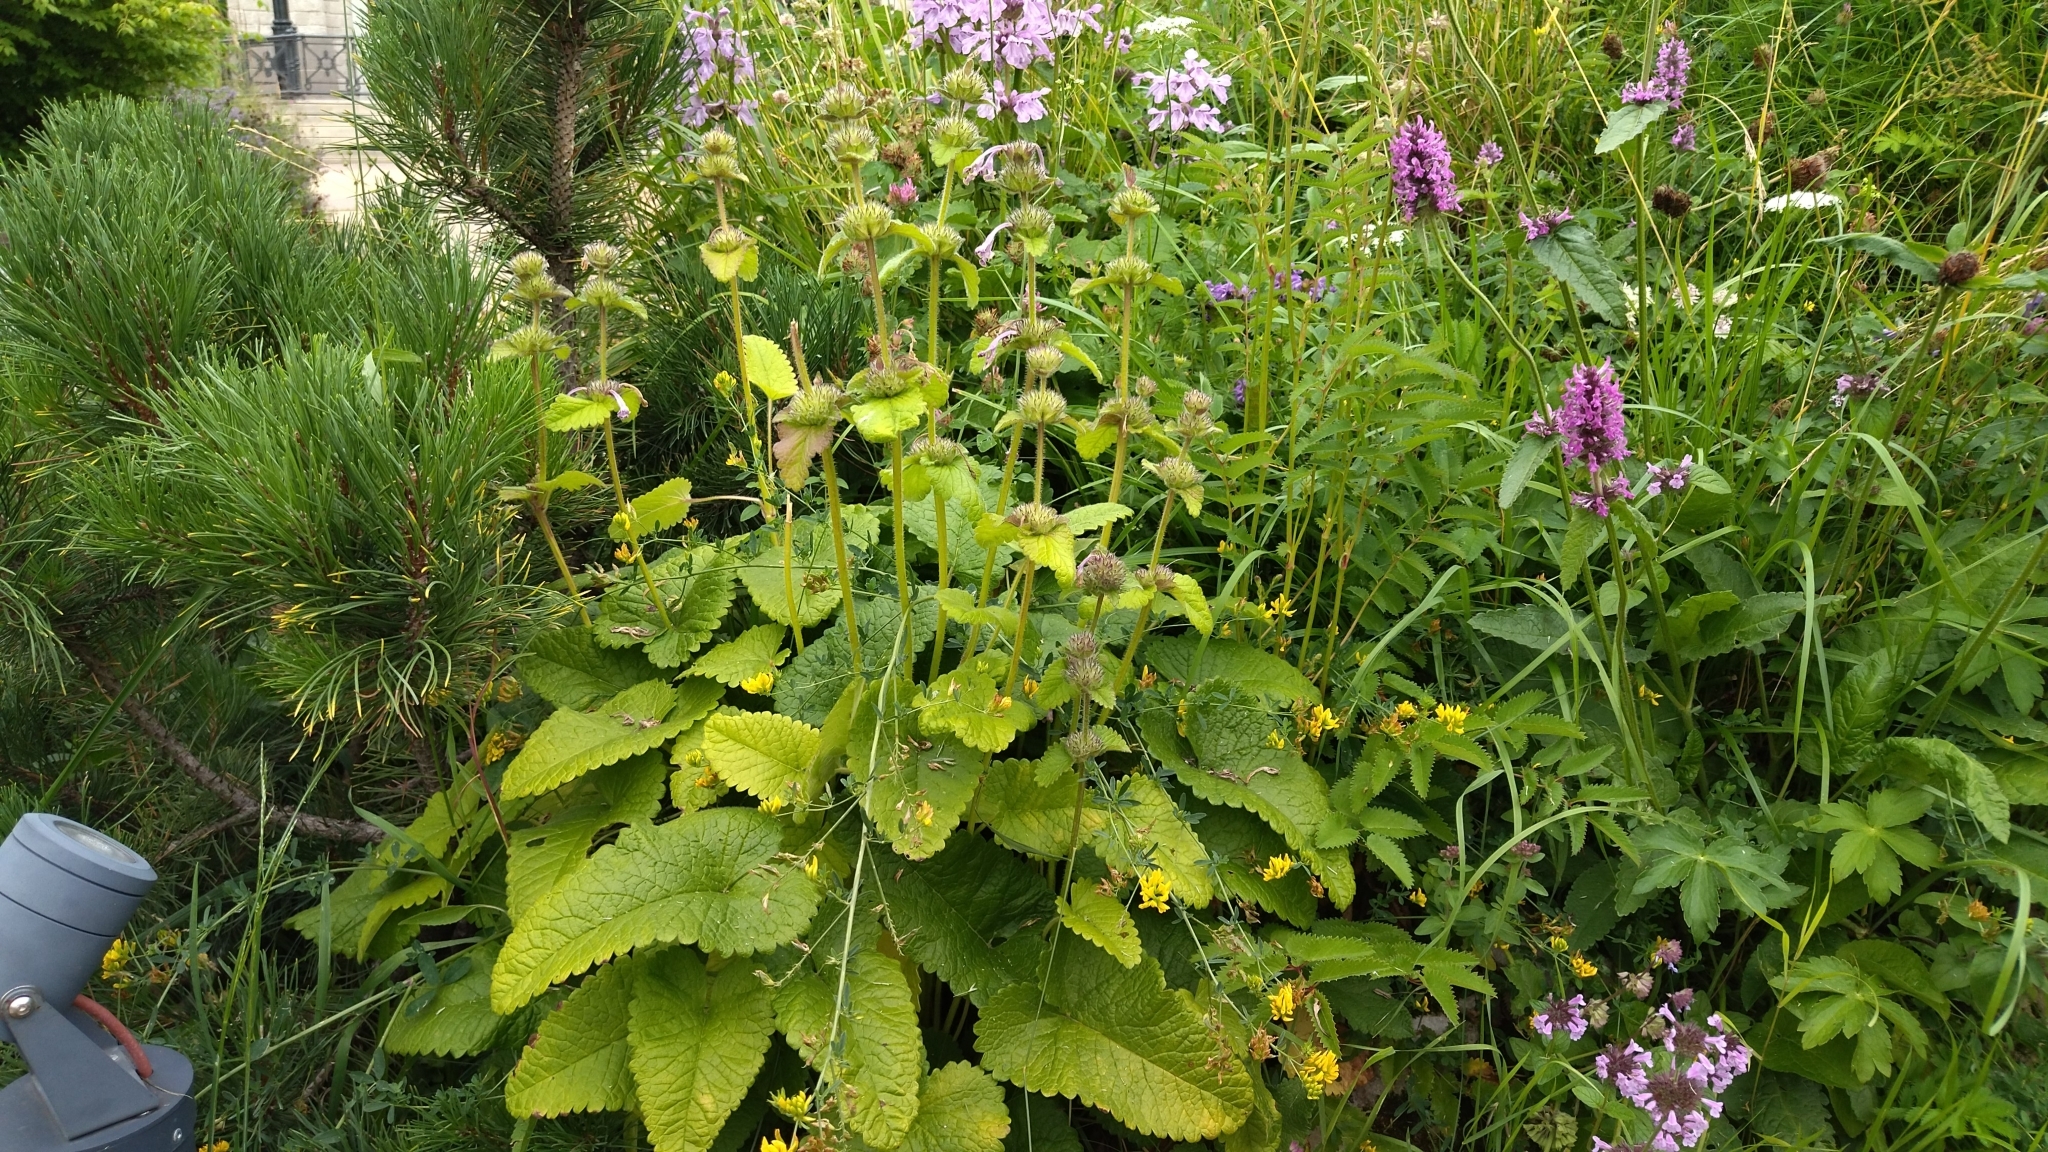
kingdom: Plantae
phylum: Tracheophyta
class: Magnoliopsida
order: Lamiales
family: Lamiaceae
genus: Betonica
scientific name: Betonica macrantha
